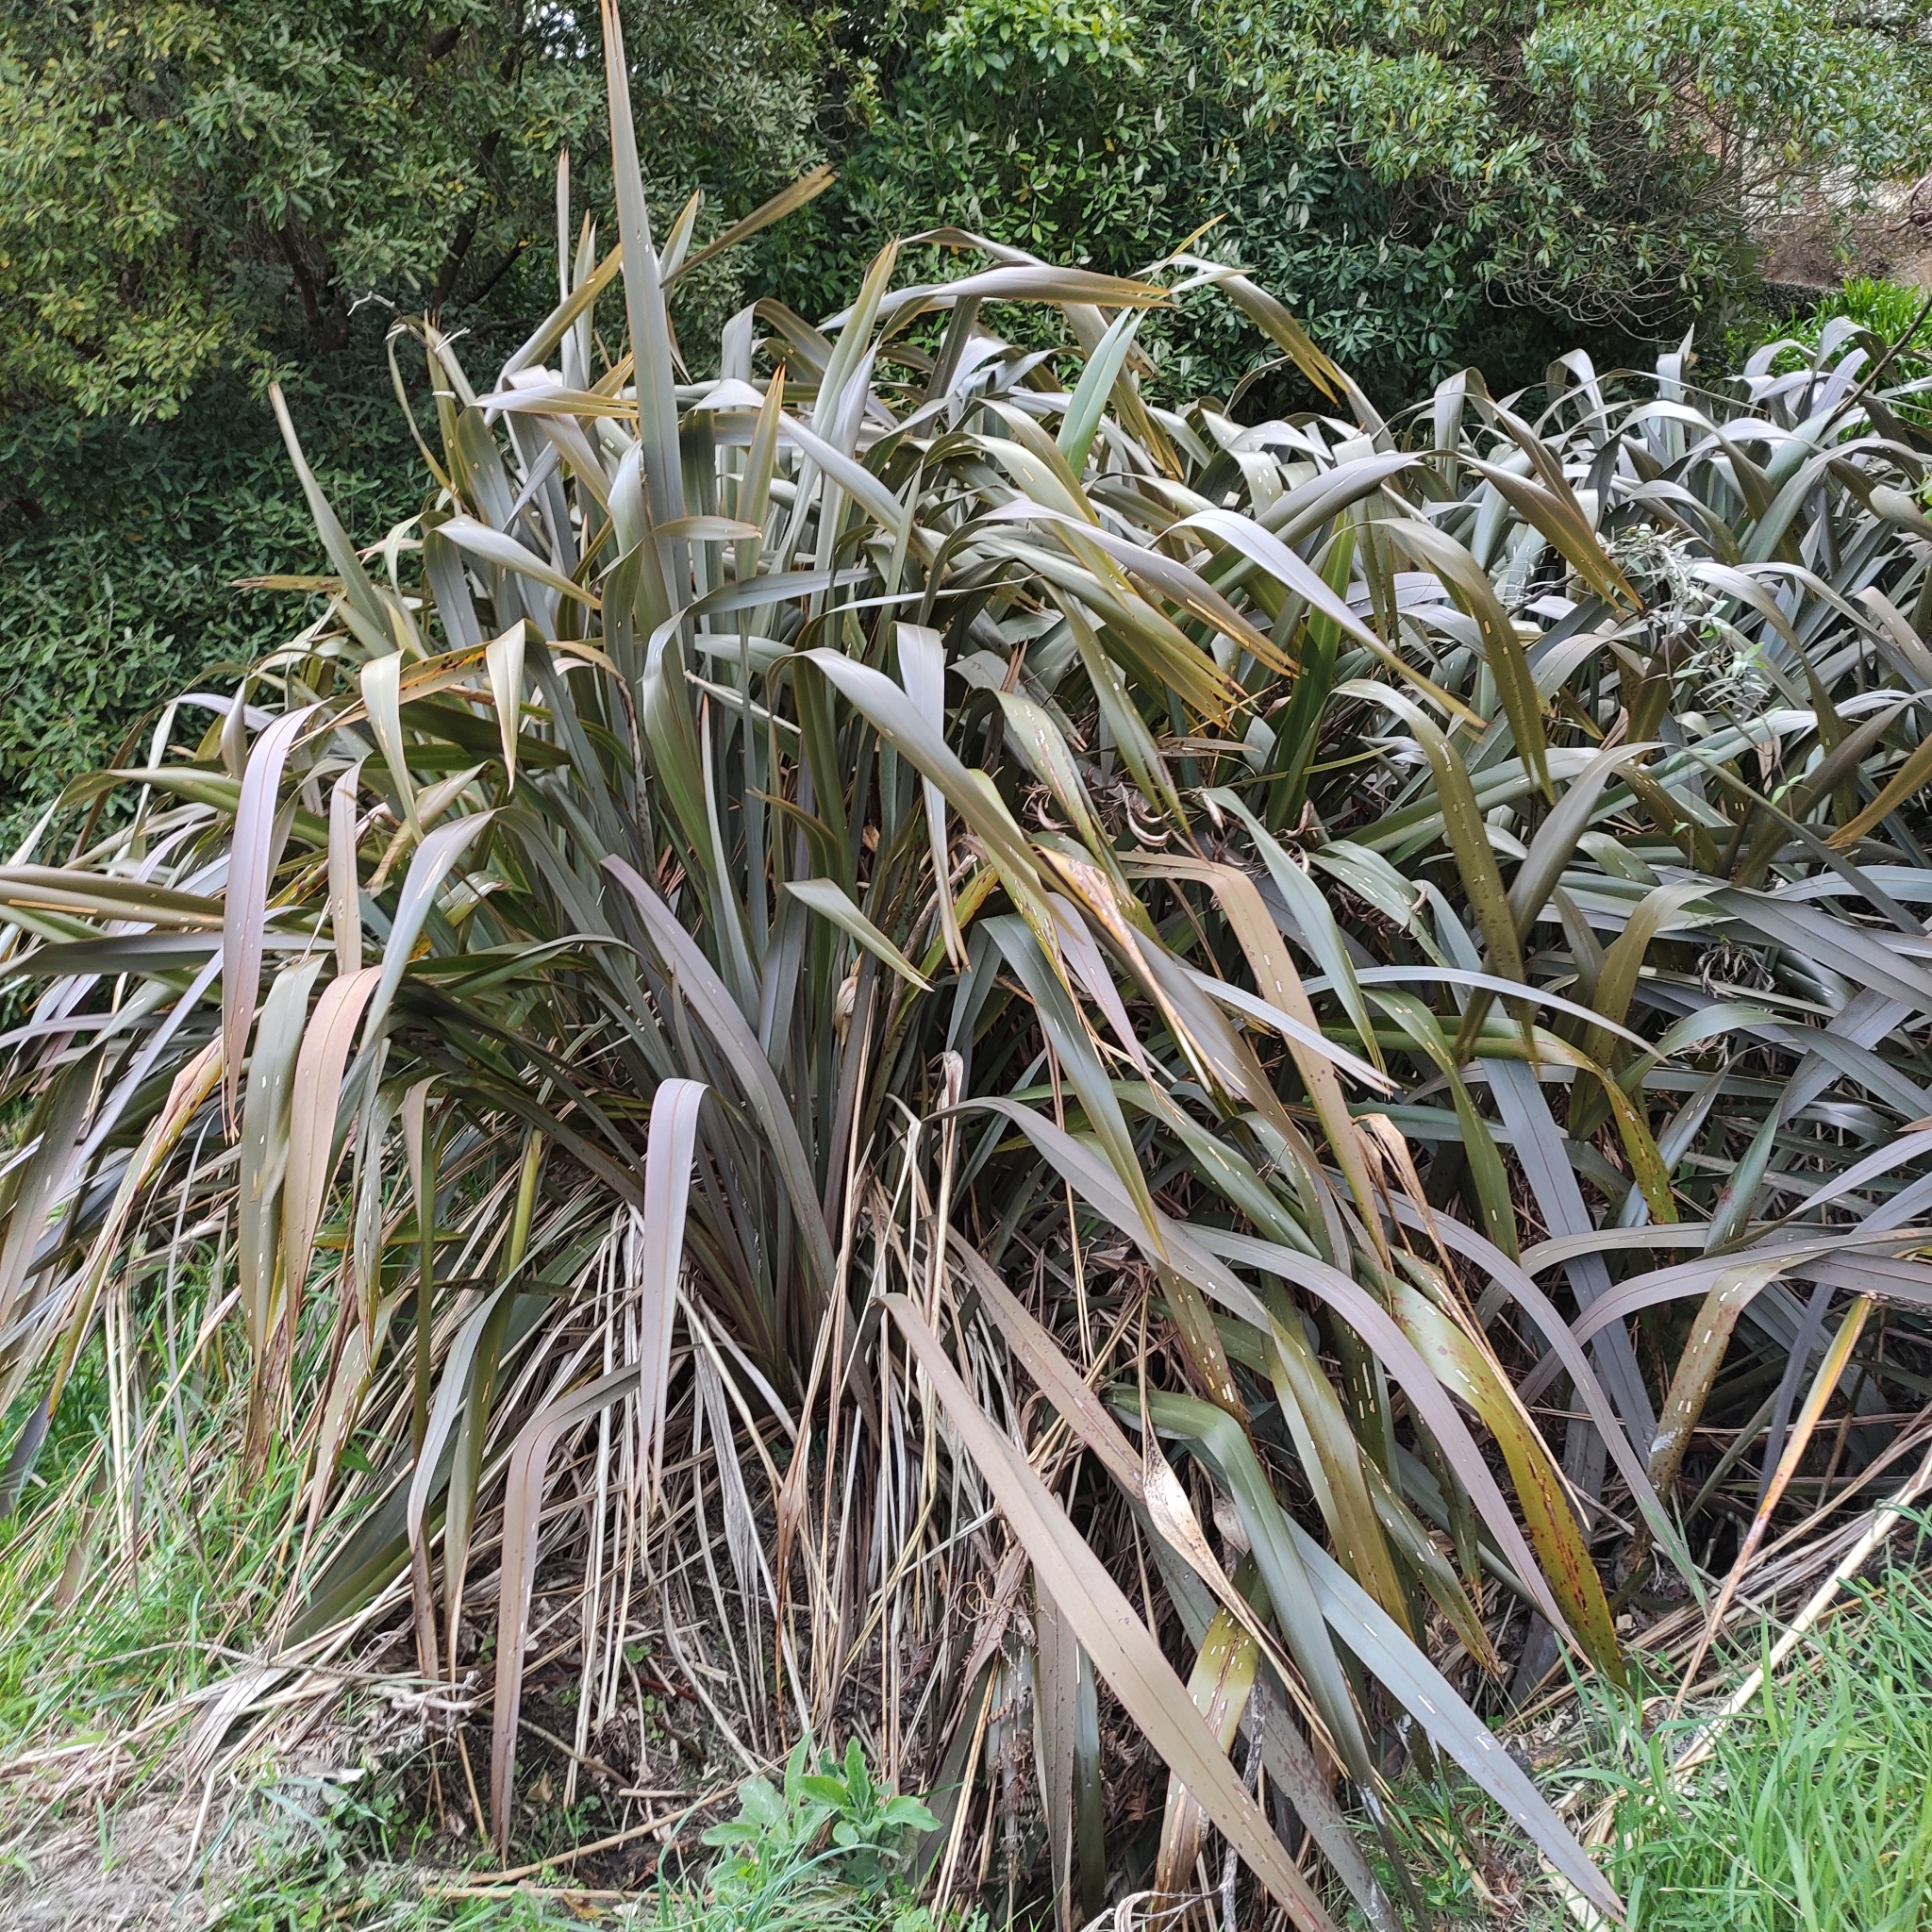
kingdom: Plantae
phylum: Tracheophyta
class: Liliopsida
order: Asparagales
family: Asphodelaceae
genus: Phormium
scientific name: Phormium tenax
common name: New zealand flax
